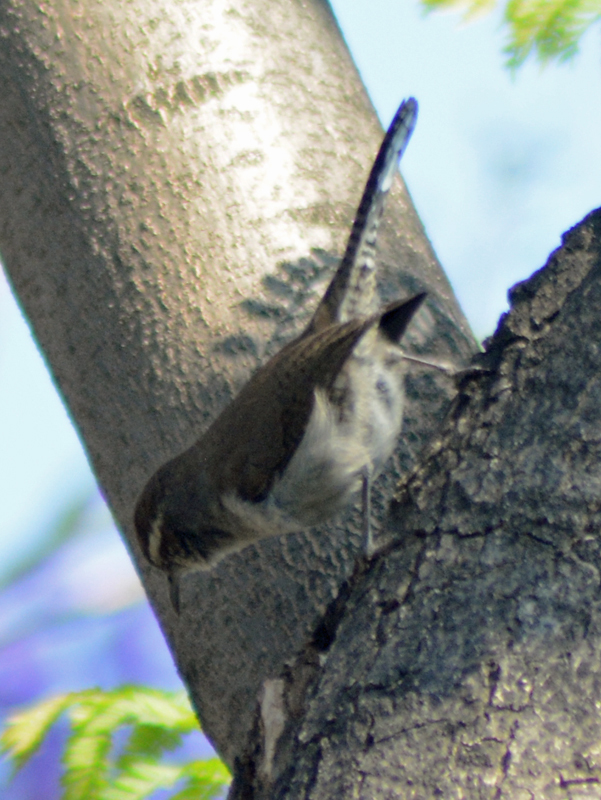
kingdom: Animalia
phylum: Chordata
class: Aves
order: Passeriformes
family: Troglodytidae
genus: Thryomanes
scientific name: Thryomanes bewickii
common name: Bewick's wren
